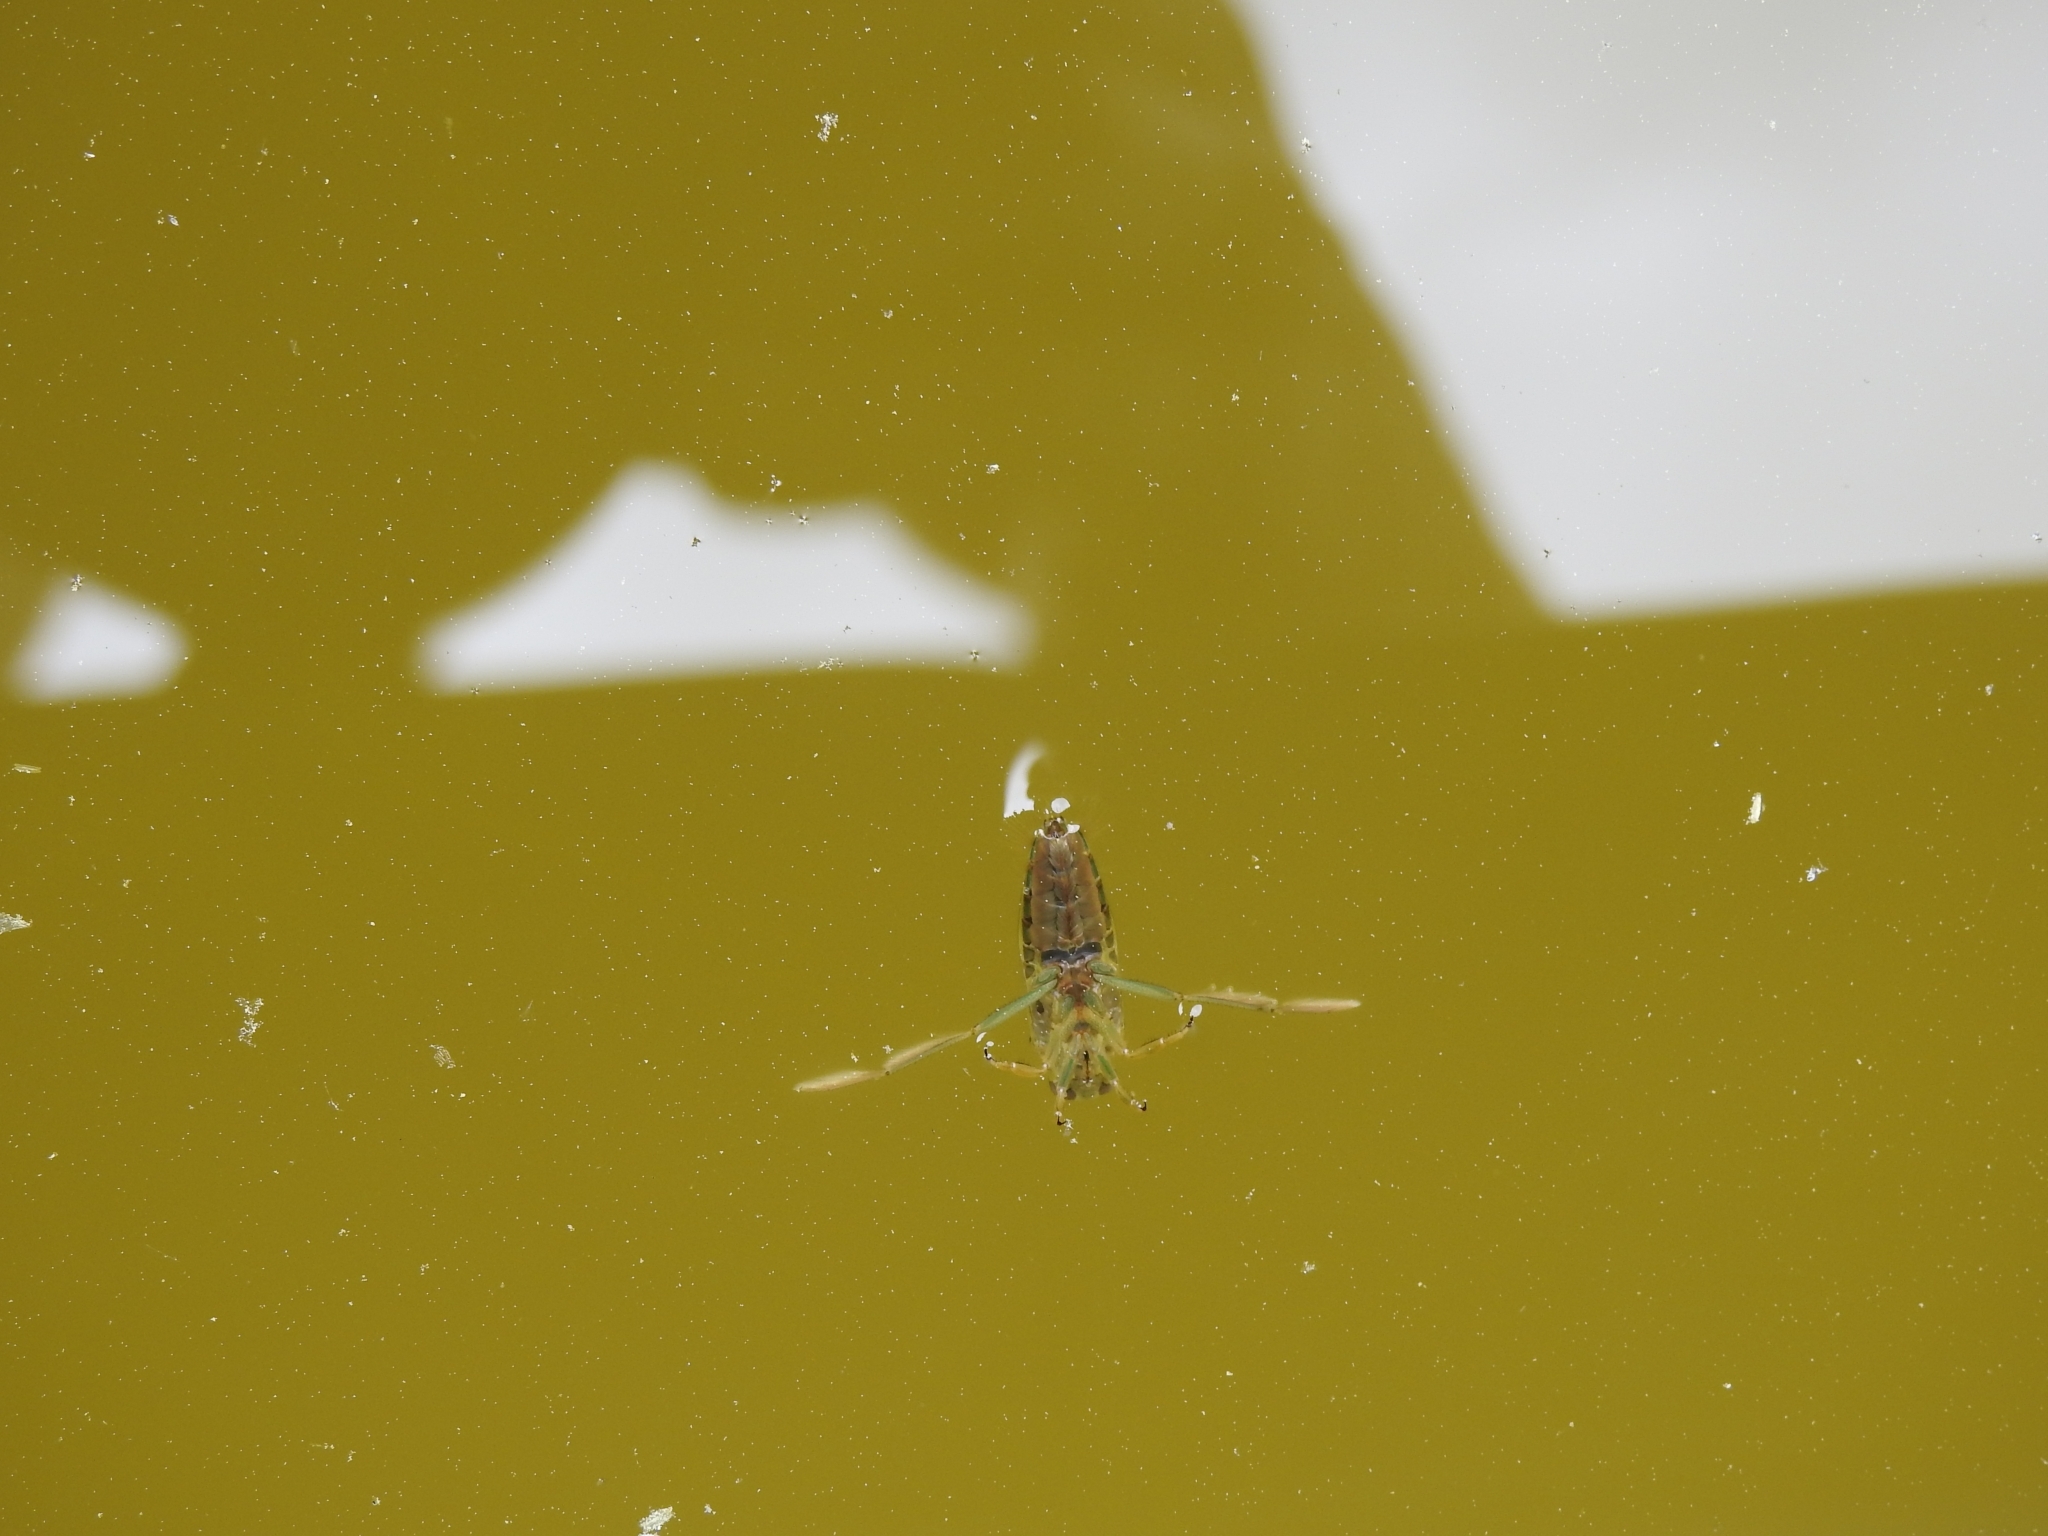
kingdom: Animalia
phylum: Arthropoda
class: Insecta
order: Hemiptera
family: Notonectidae
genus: Notonecta
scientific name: Notonecta
